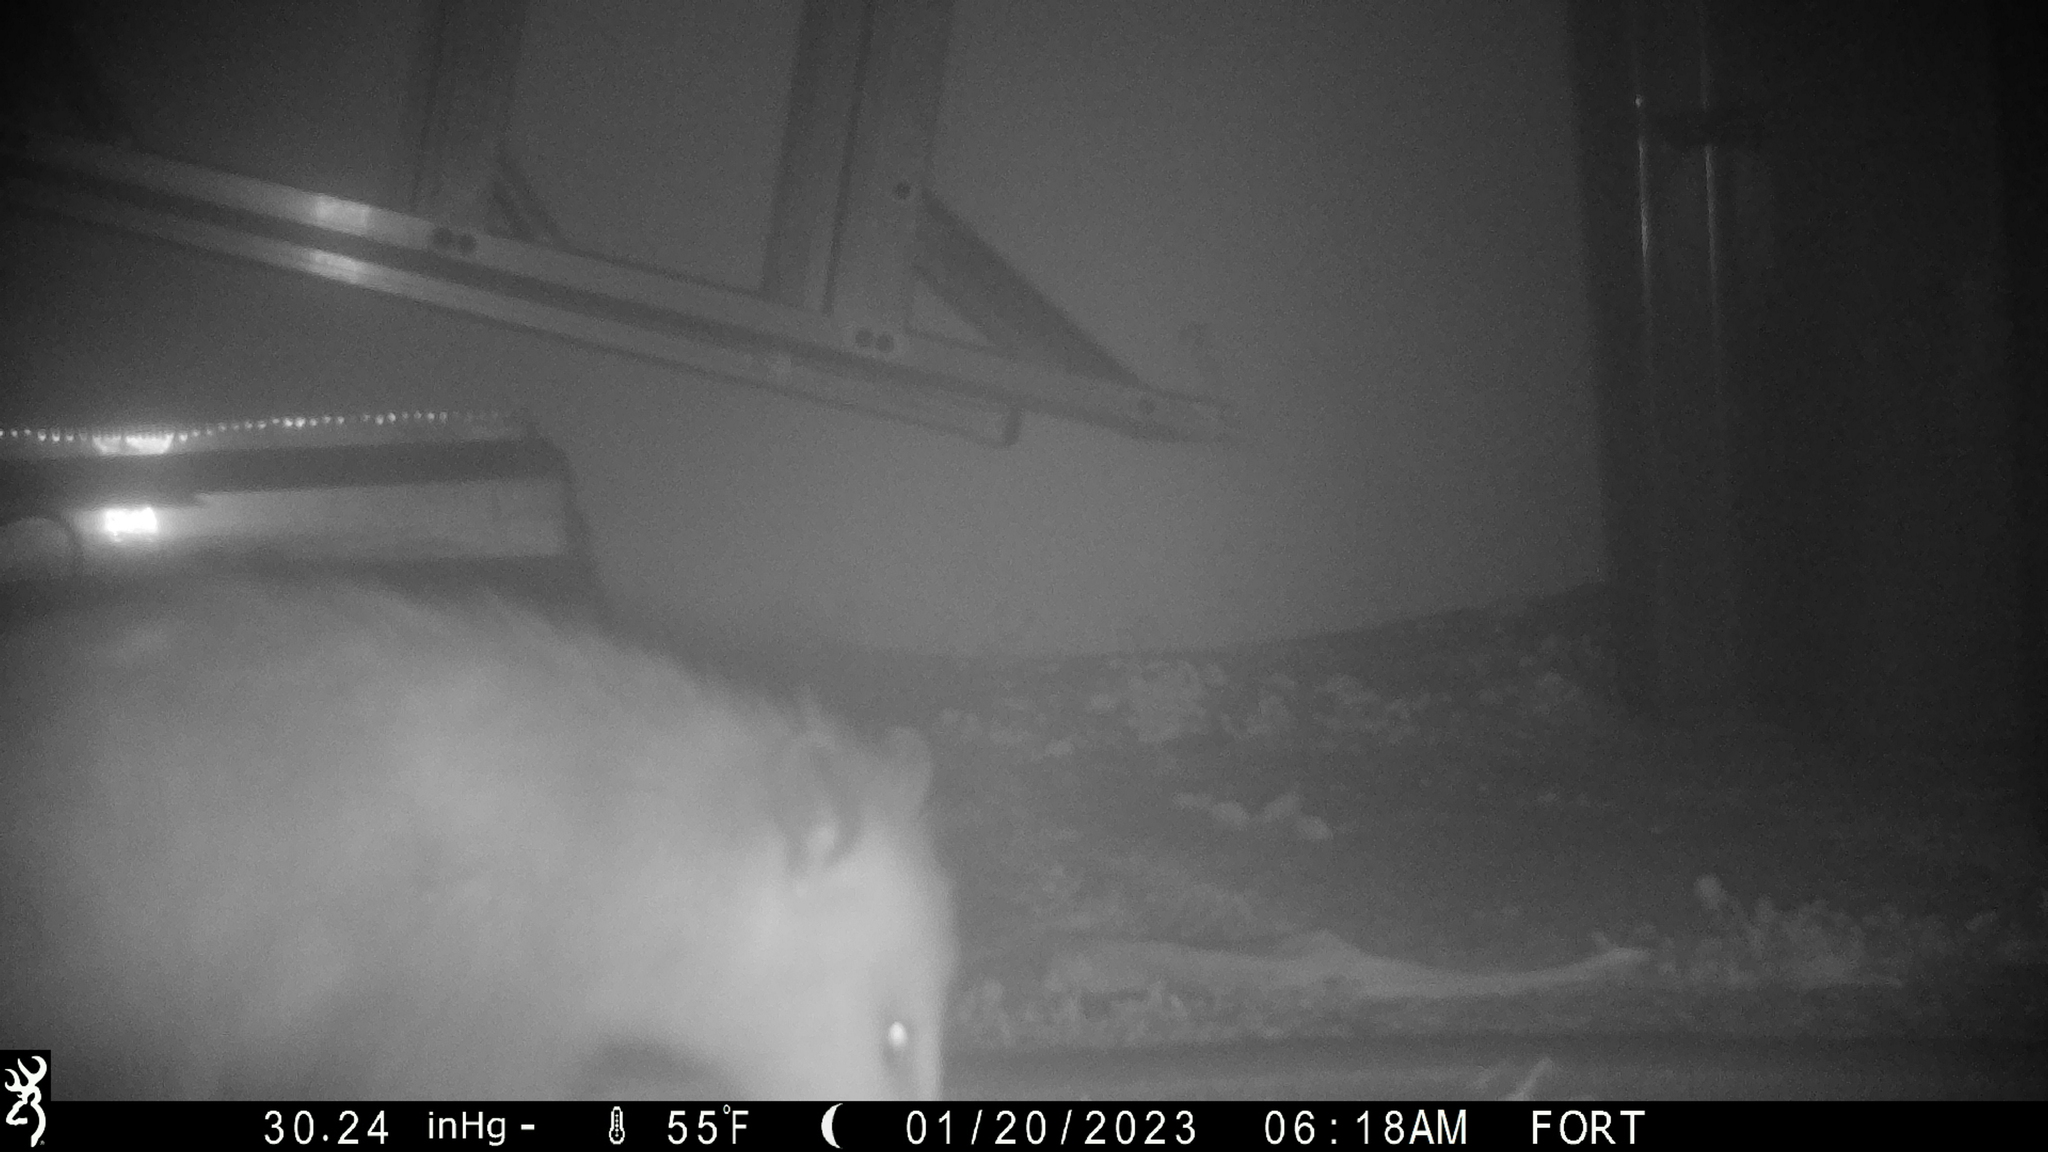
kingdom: Animalia
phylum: Chordata
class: Mammalia
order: Didelphimorphia
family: Didelphidae
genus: Didelphis
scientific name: Didelphis virginiana
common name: Virginia opossum
